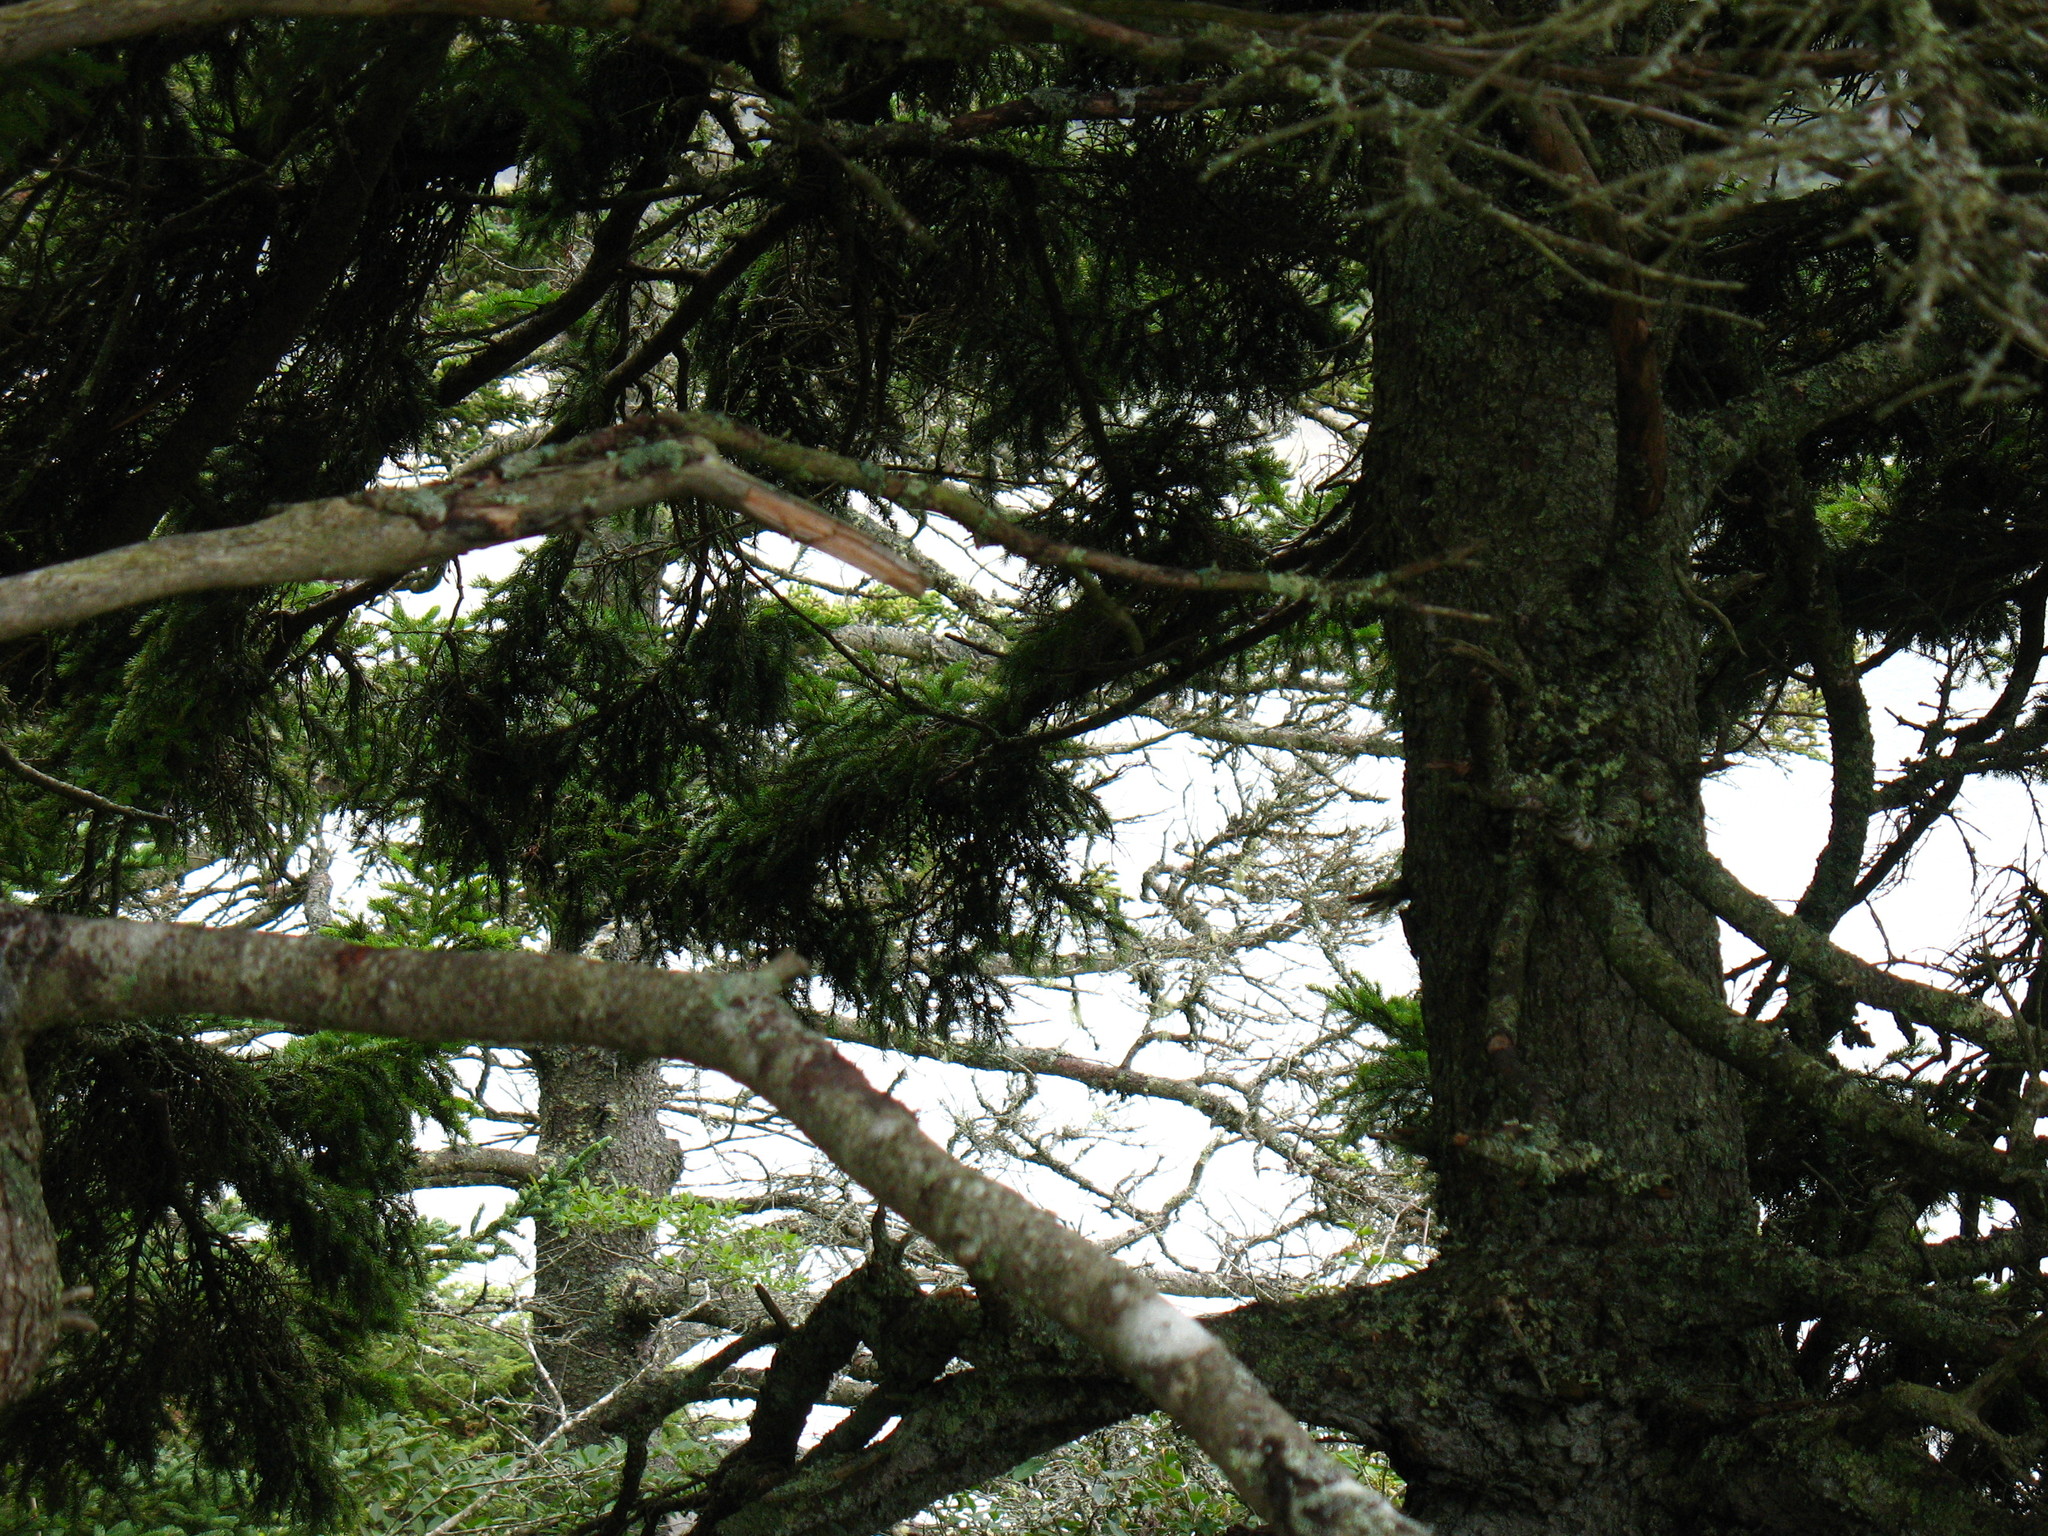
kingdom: Plantae
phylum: Tracheophyta
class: Pinopsida
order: Pinales
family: Pinaceae
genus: Picea
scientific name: Picea
